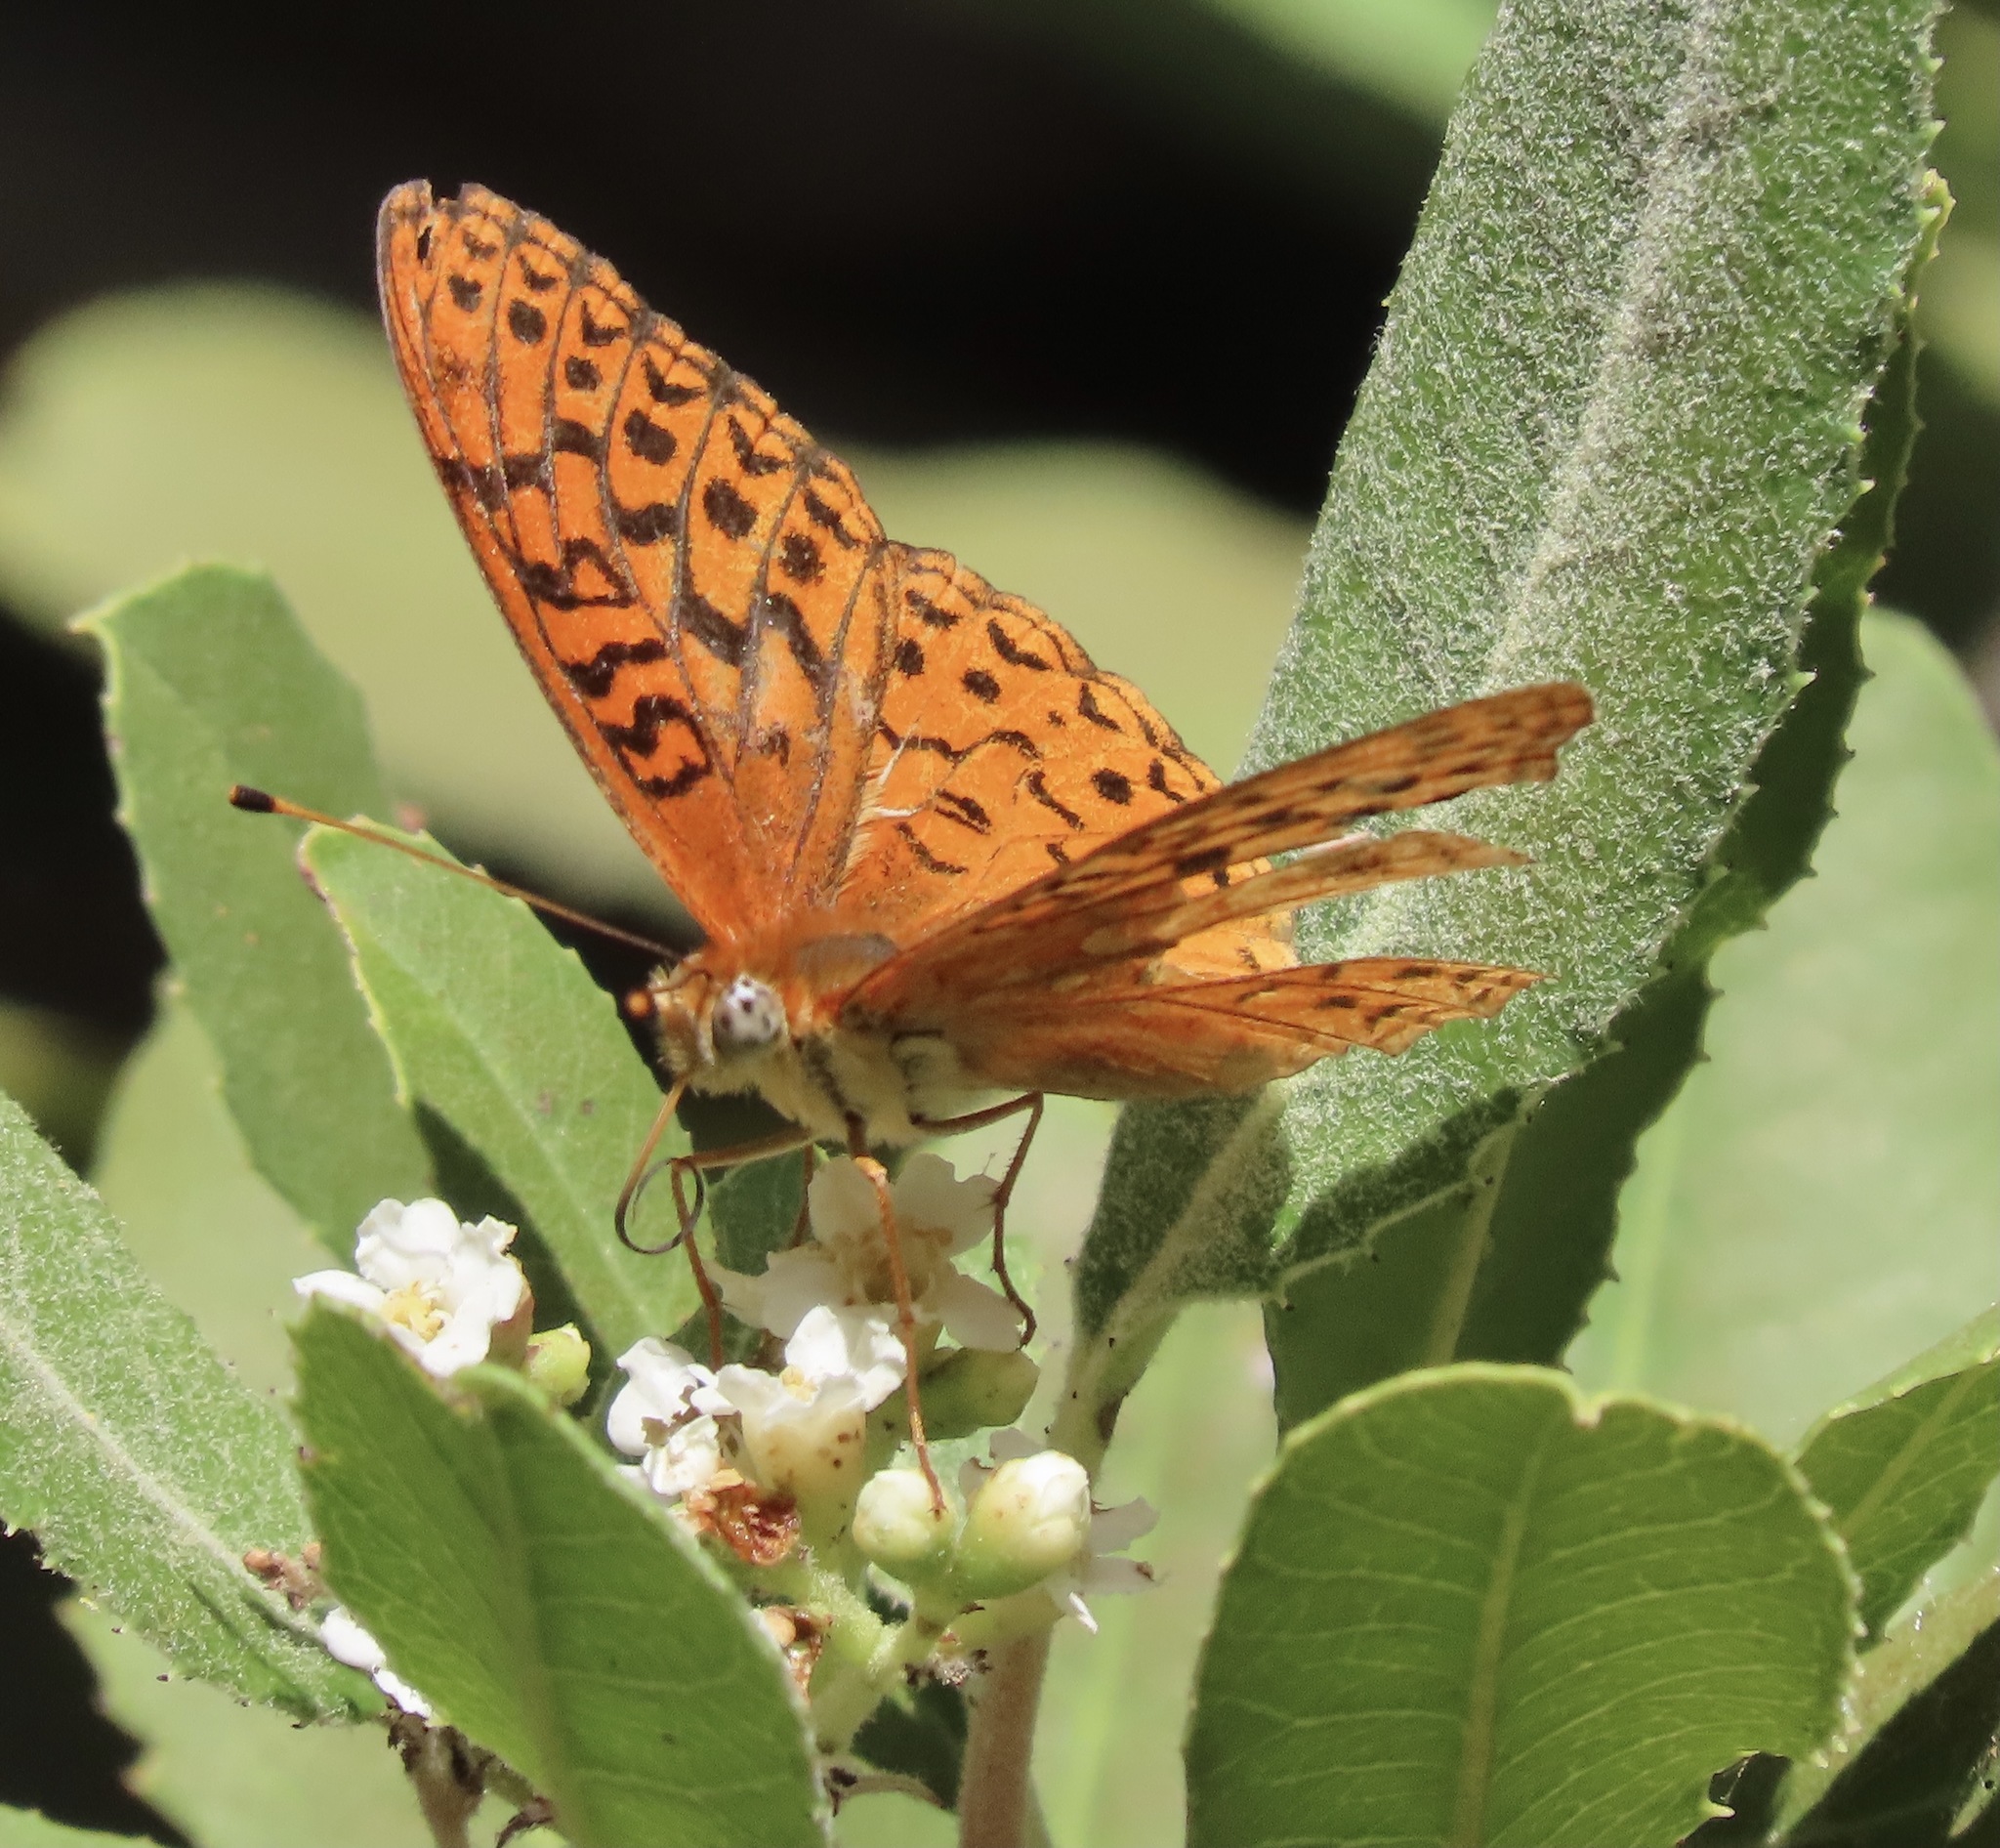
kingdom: Animalia
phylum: Arthropoda
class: Insecta
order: Lepidoptera
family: Nymphalidae
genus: Speyeria
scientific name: Speyeria adiaste
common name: Unsilvered fritillary
